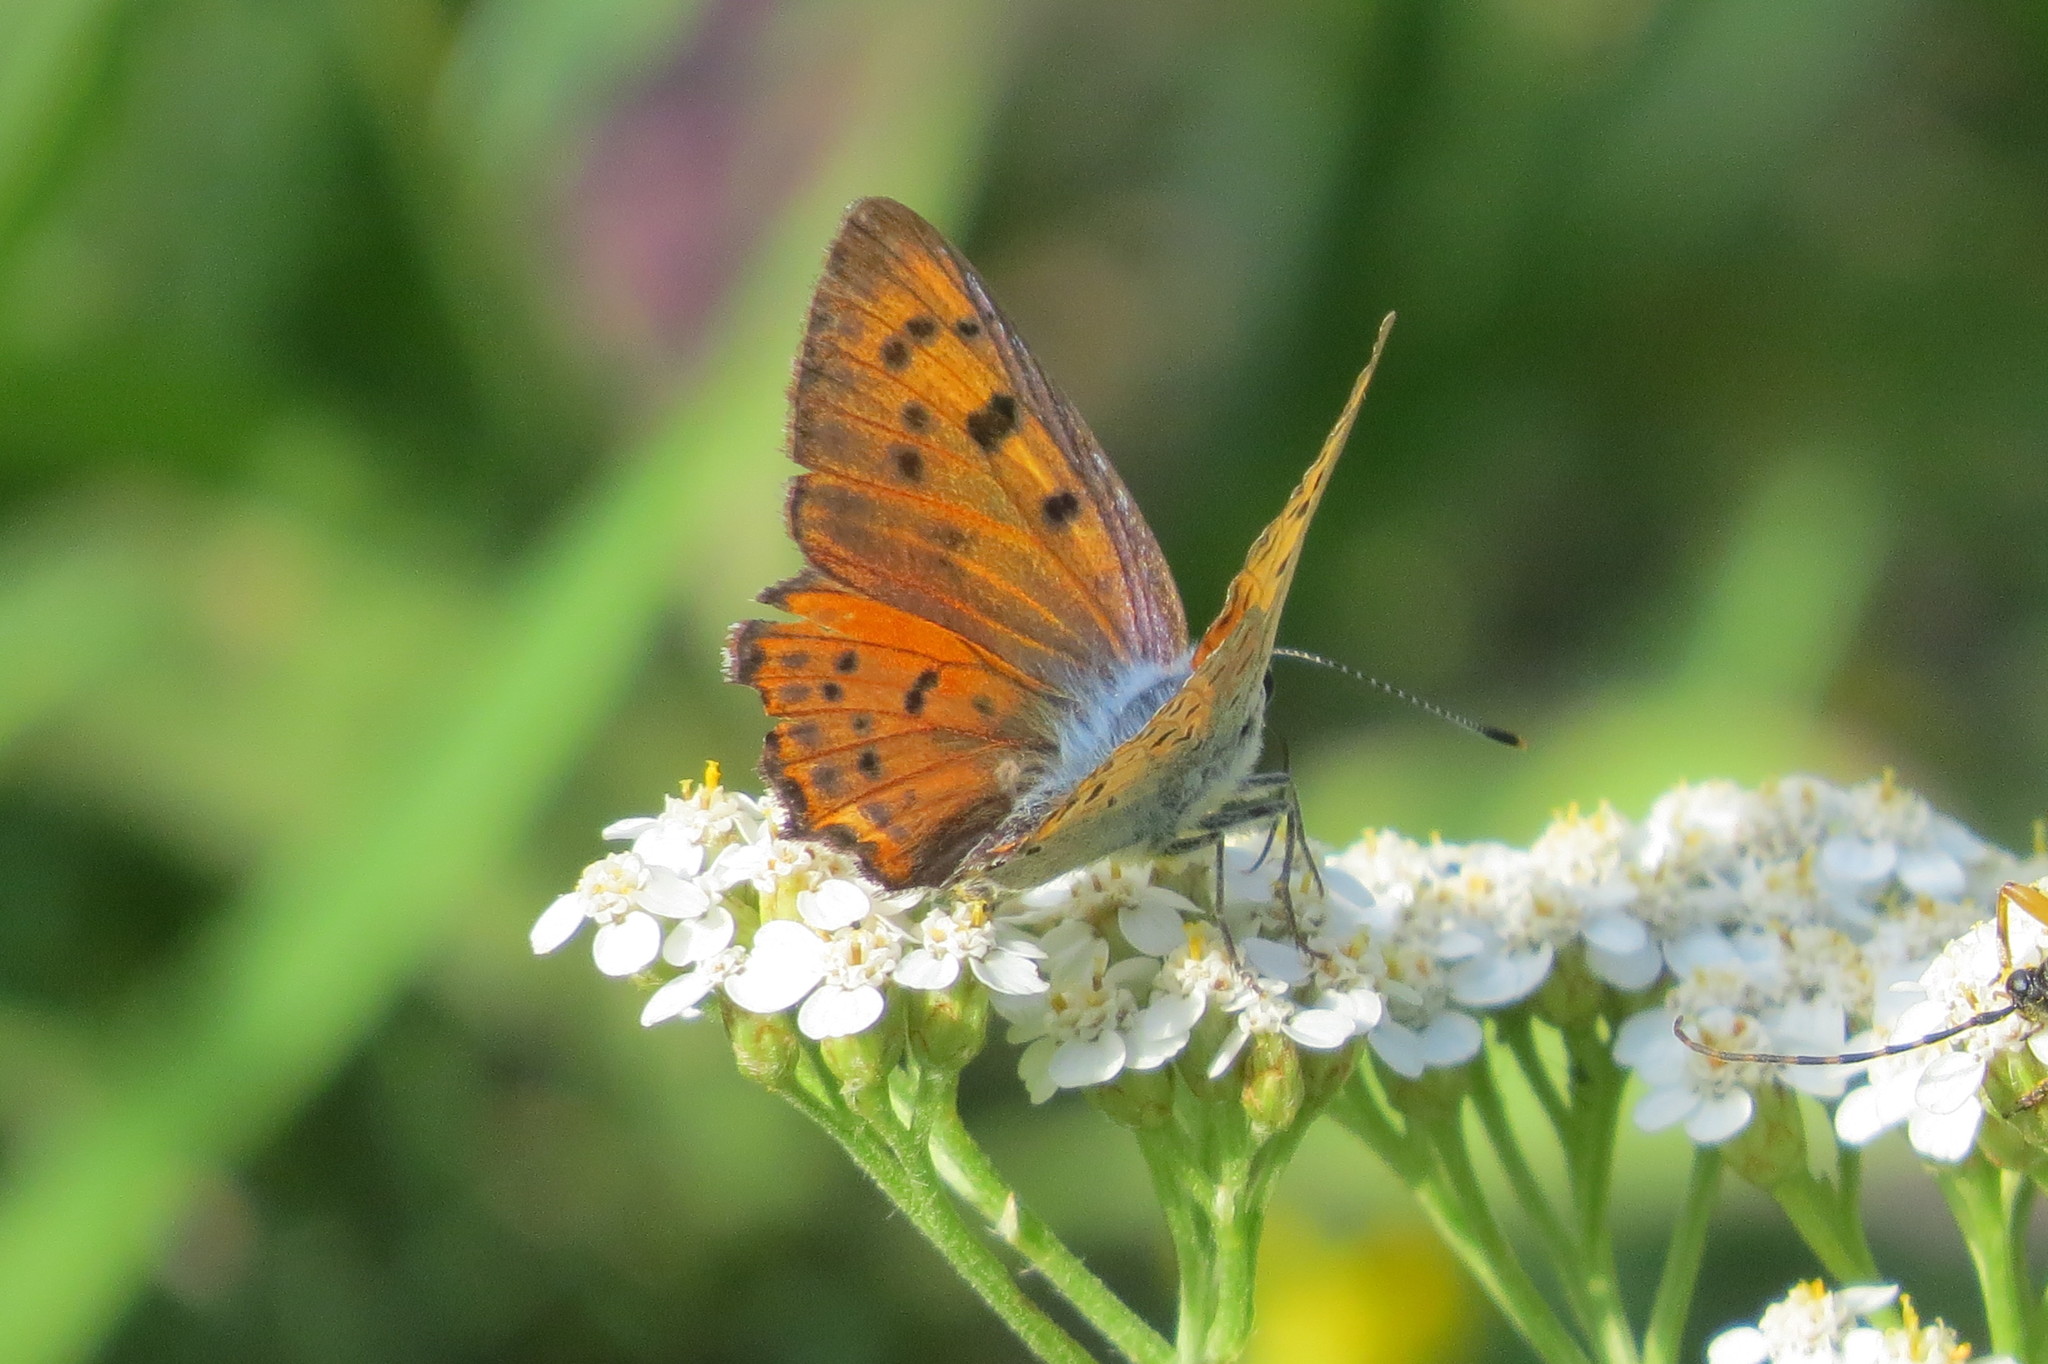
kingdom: Animalia
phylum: Arthropoda
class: Insecta
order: Lepidoptera
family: Lycaenidae
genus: Lycaena
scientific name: Lycaena alciphron
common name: Purple-shot copper
